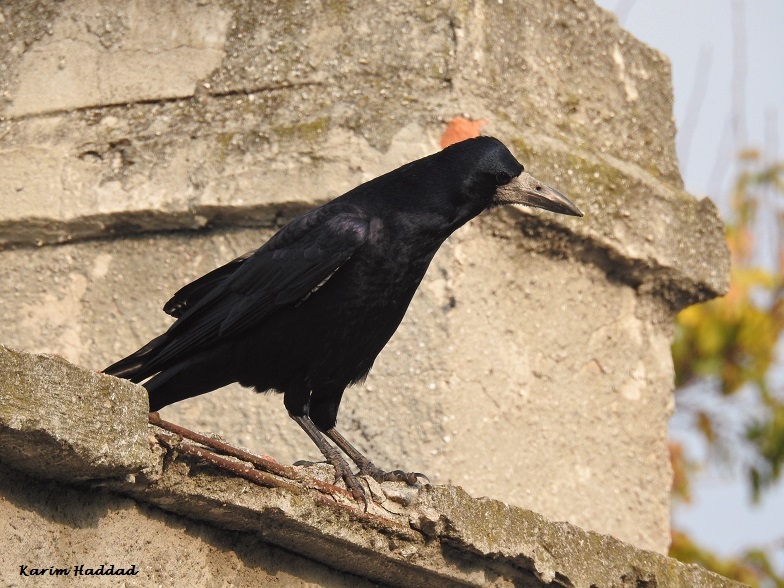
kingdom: Animalia
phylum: Chordata
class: Aves
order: Passeriformes
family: Corvidae
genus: Corvus
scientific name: Corvus frugilegus
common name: Rook
